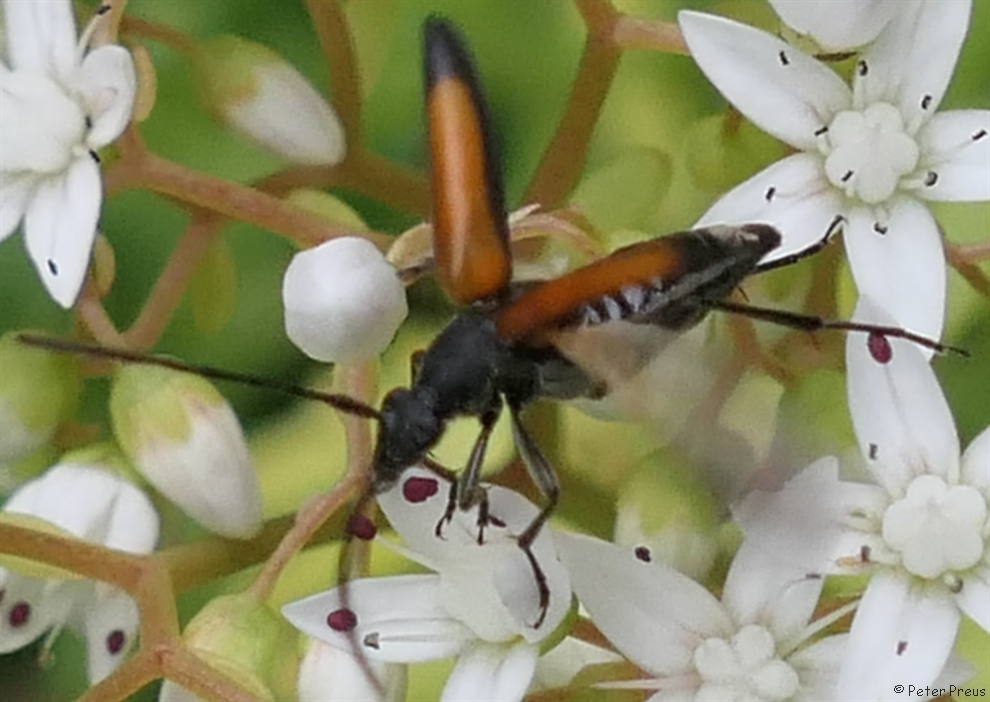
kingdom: Animalia
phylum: Arthropoda
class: Insecta
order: Coleoptera
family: Cerambycidae
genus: Stenurella
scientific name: Stenurella melanura
